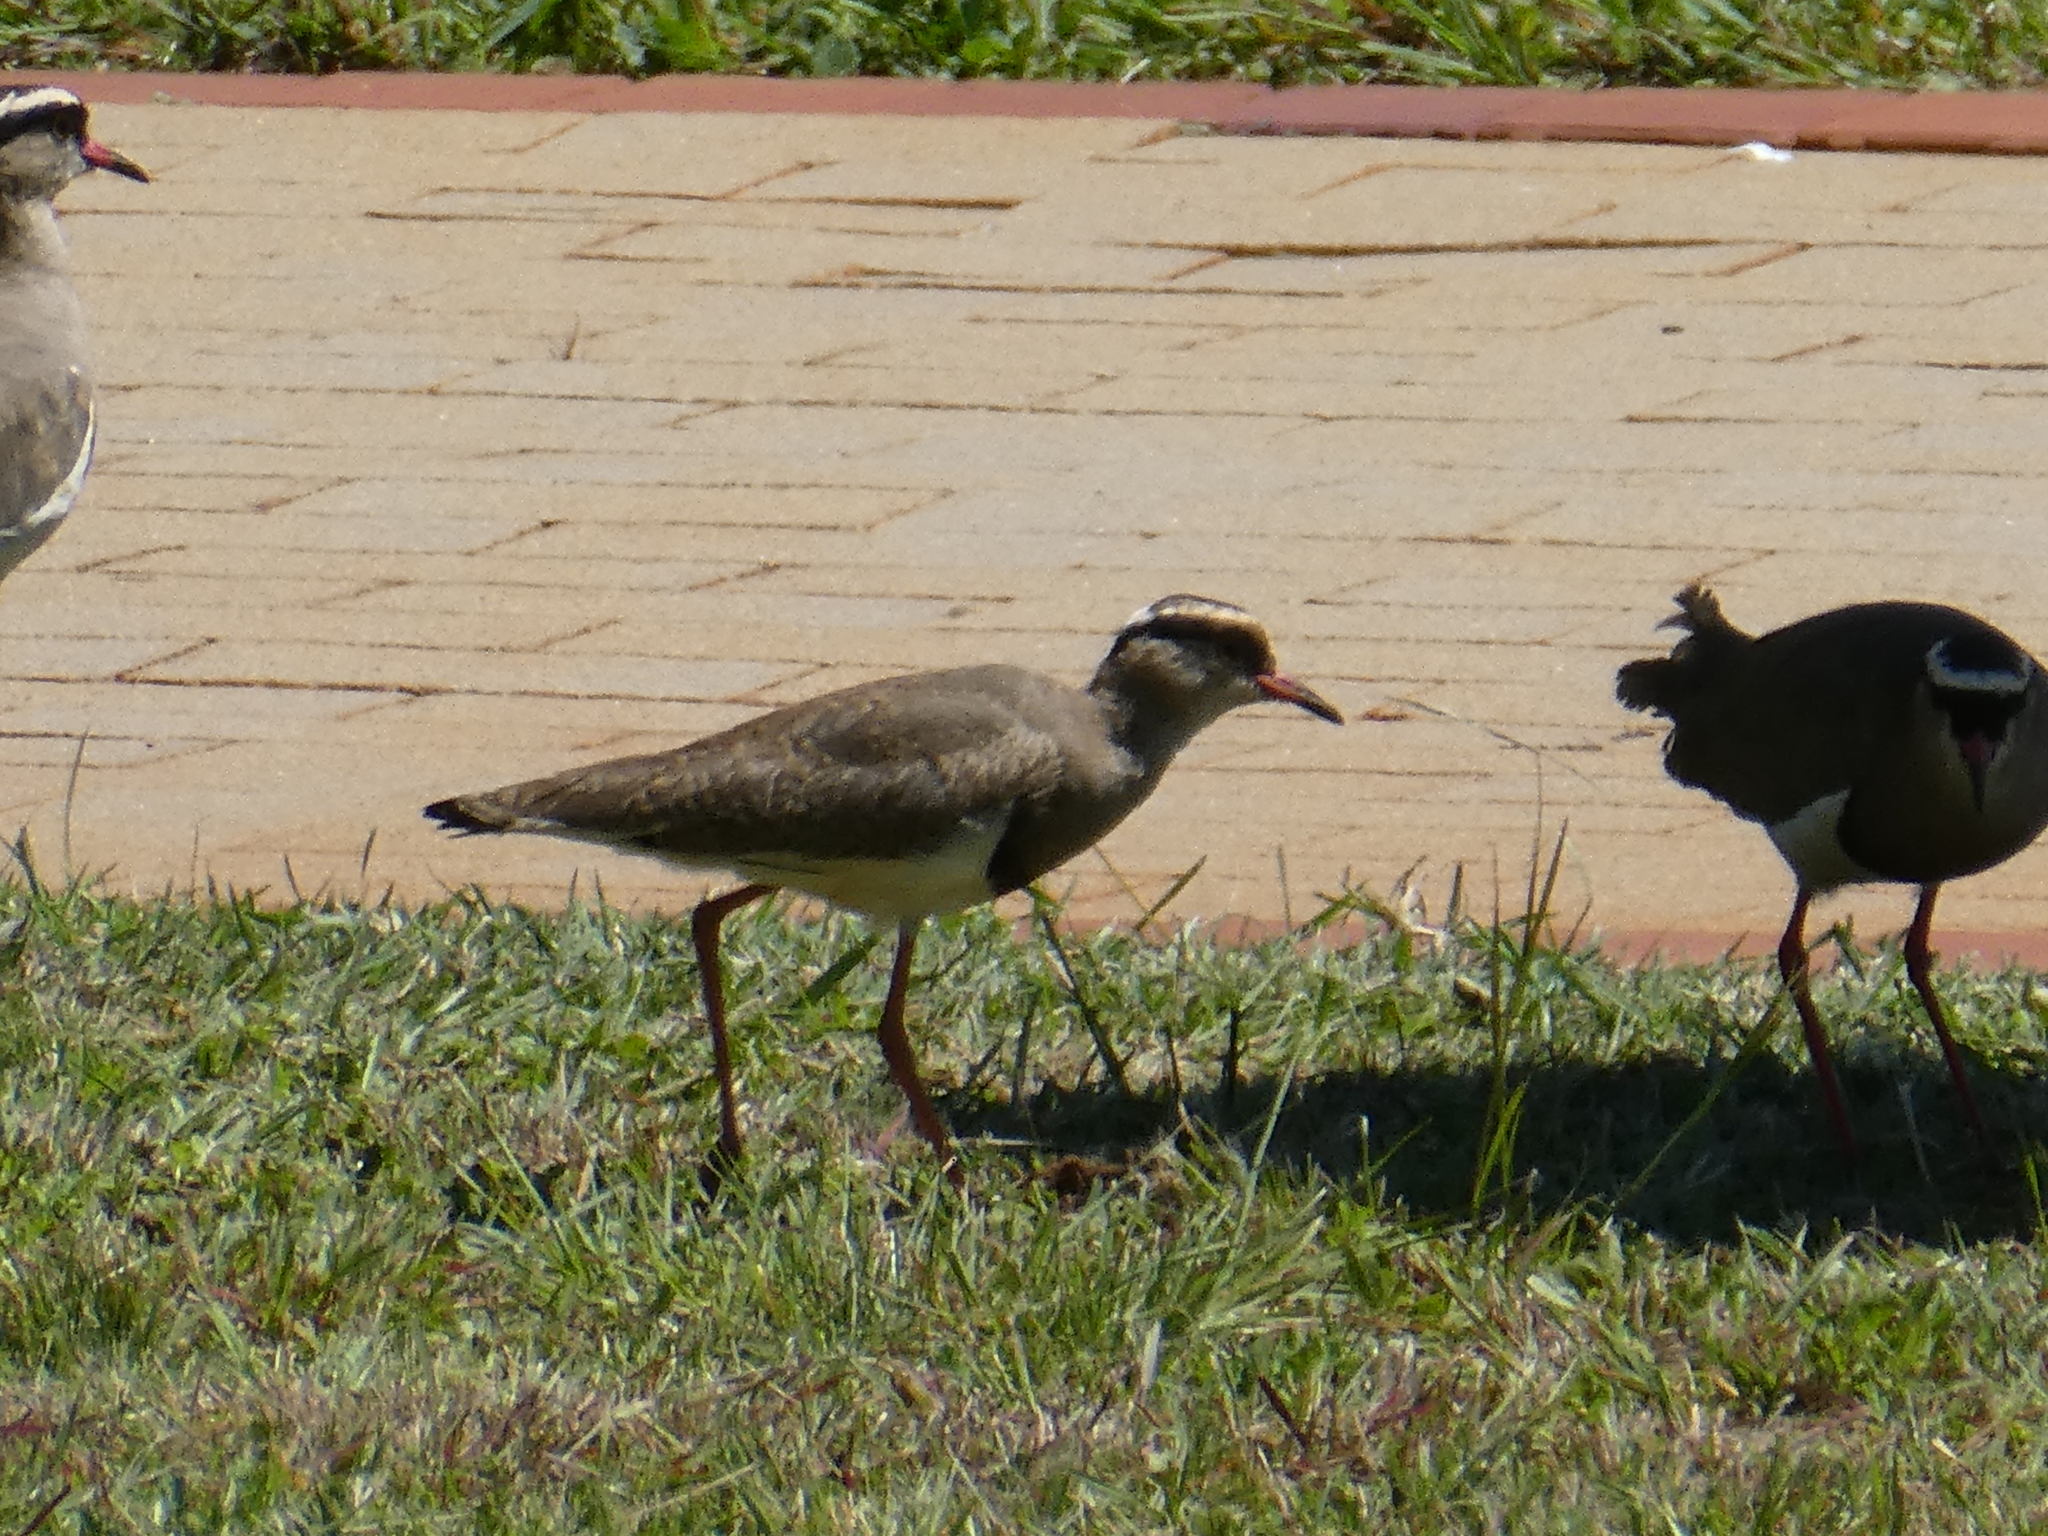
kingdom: Animalia
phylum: Chordata
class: Aves
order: Charadriiformes
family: Charadriidae
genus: Vanellus
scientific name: Vanellus coronatus
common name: Crowned lapwing
